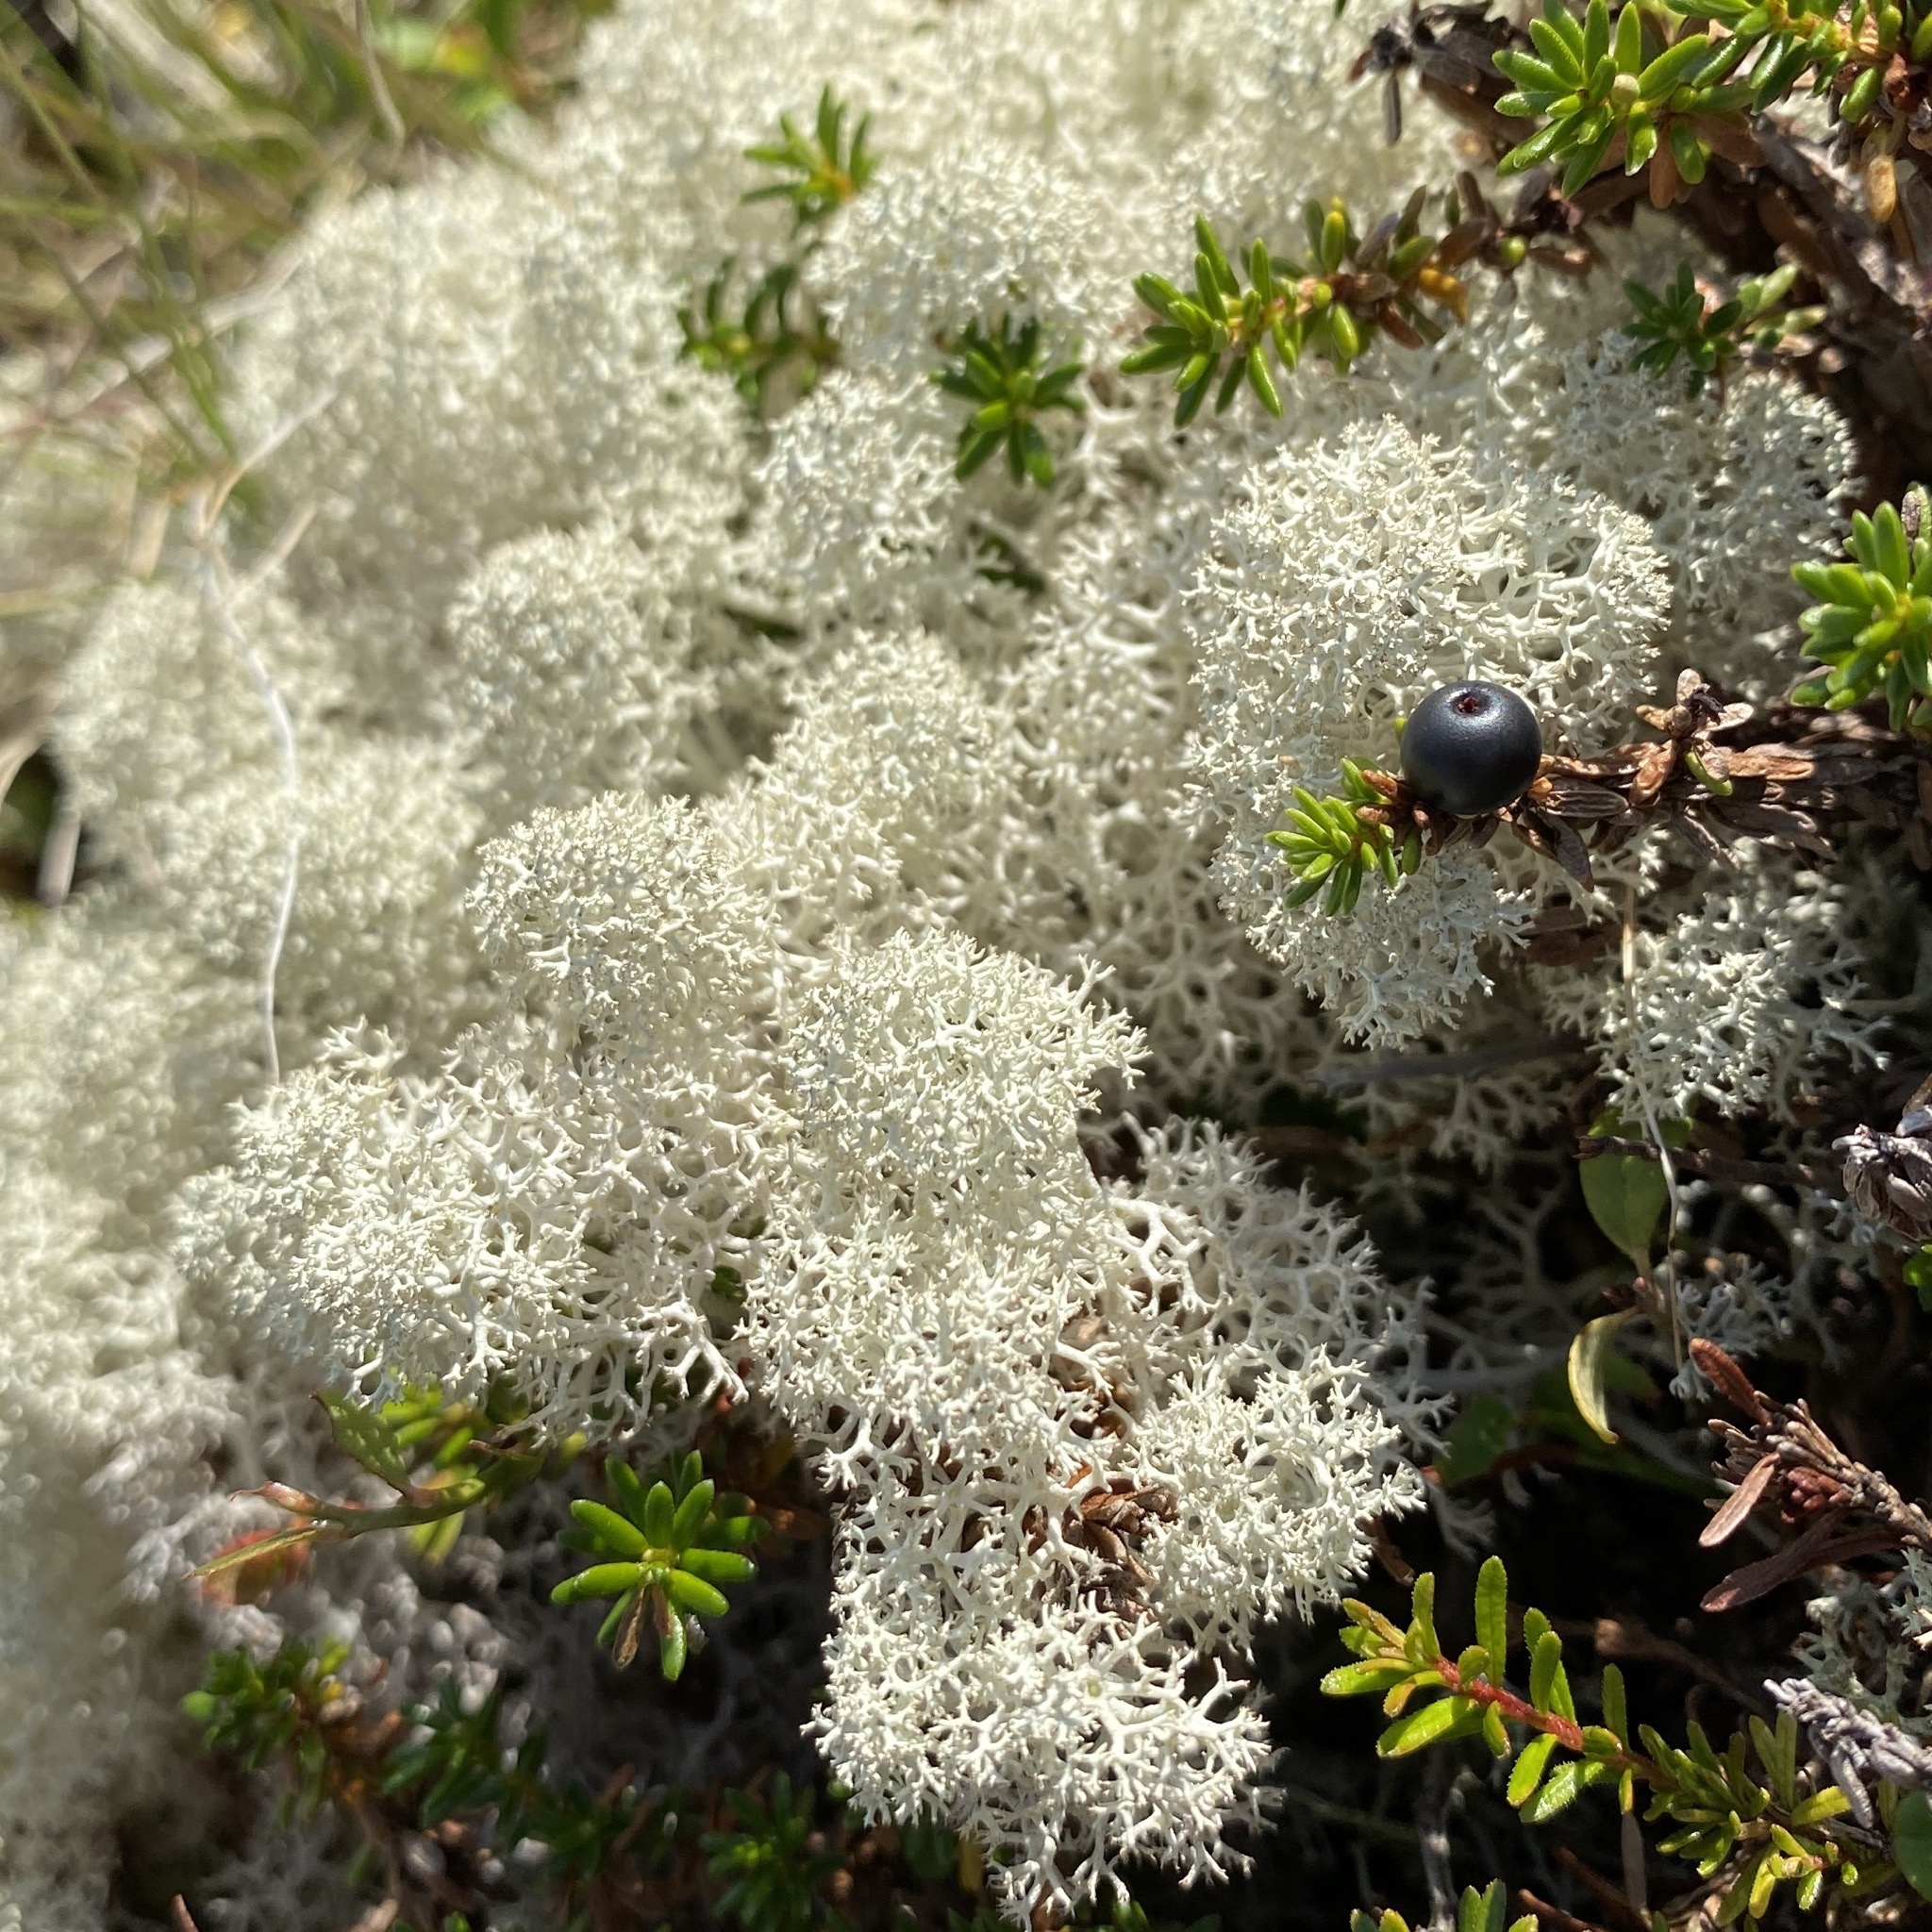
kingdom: Fungi
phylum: Ascomycota
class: Lecanoromycetes
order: Lecanorales
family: Cladoniaceae
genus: Cladonia
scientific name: Cladonia stellaris
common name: Star-tipped reindeer lichen
